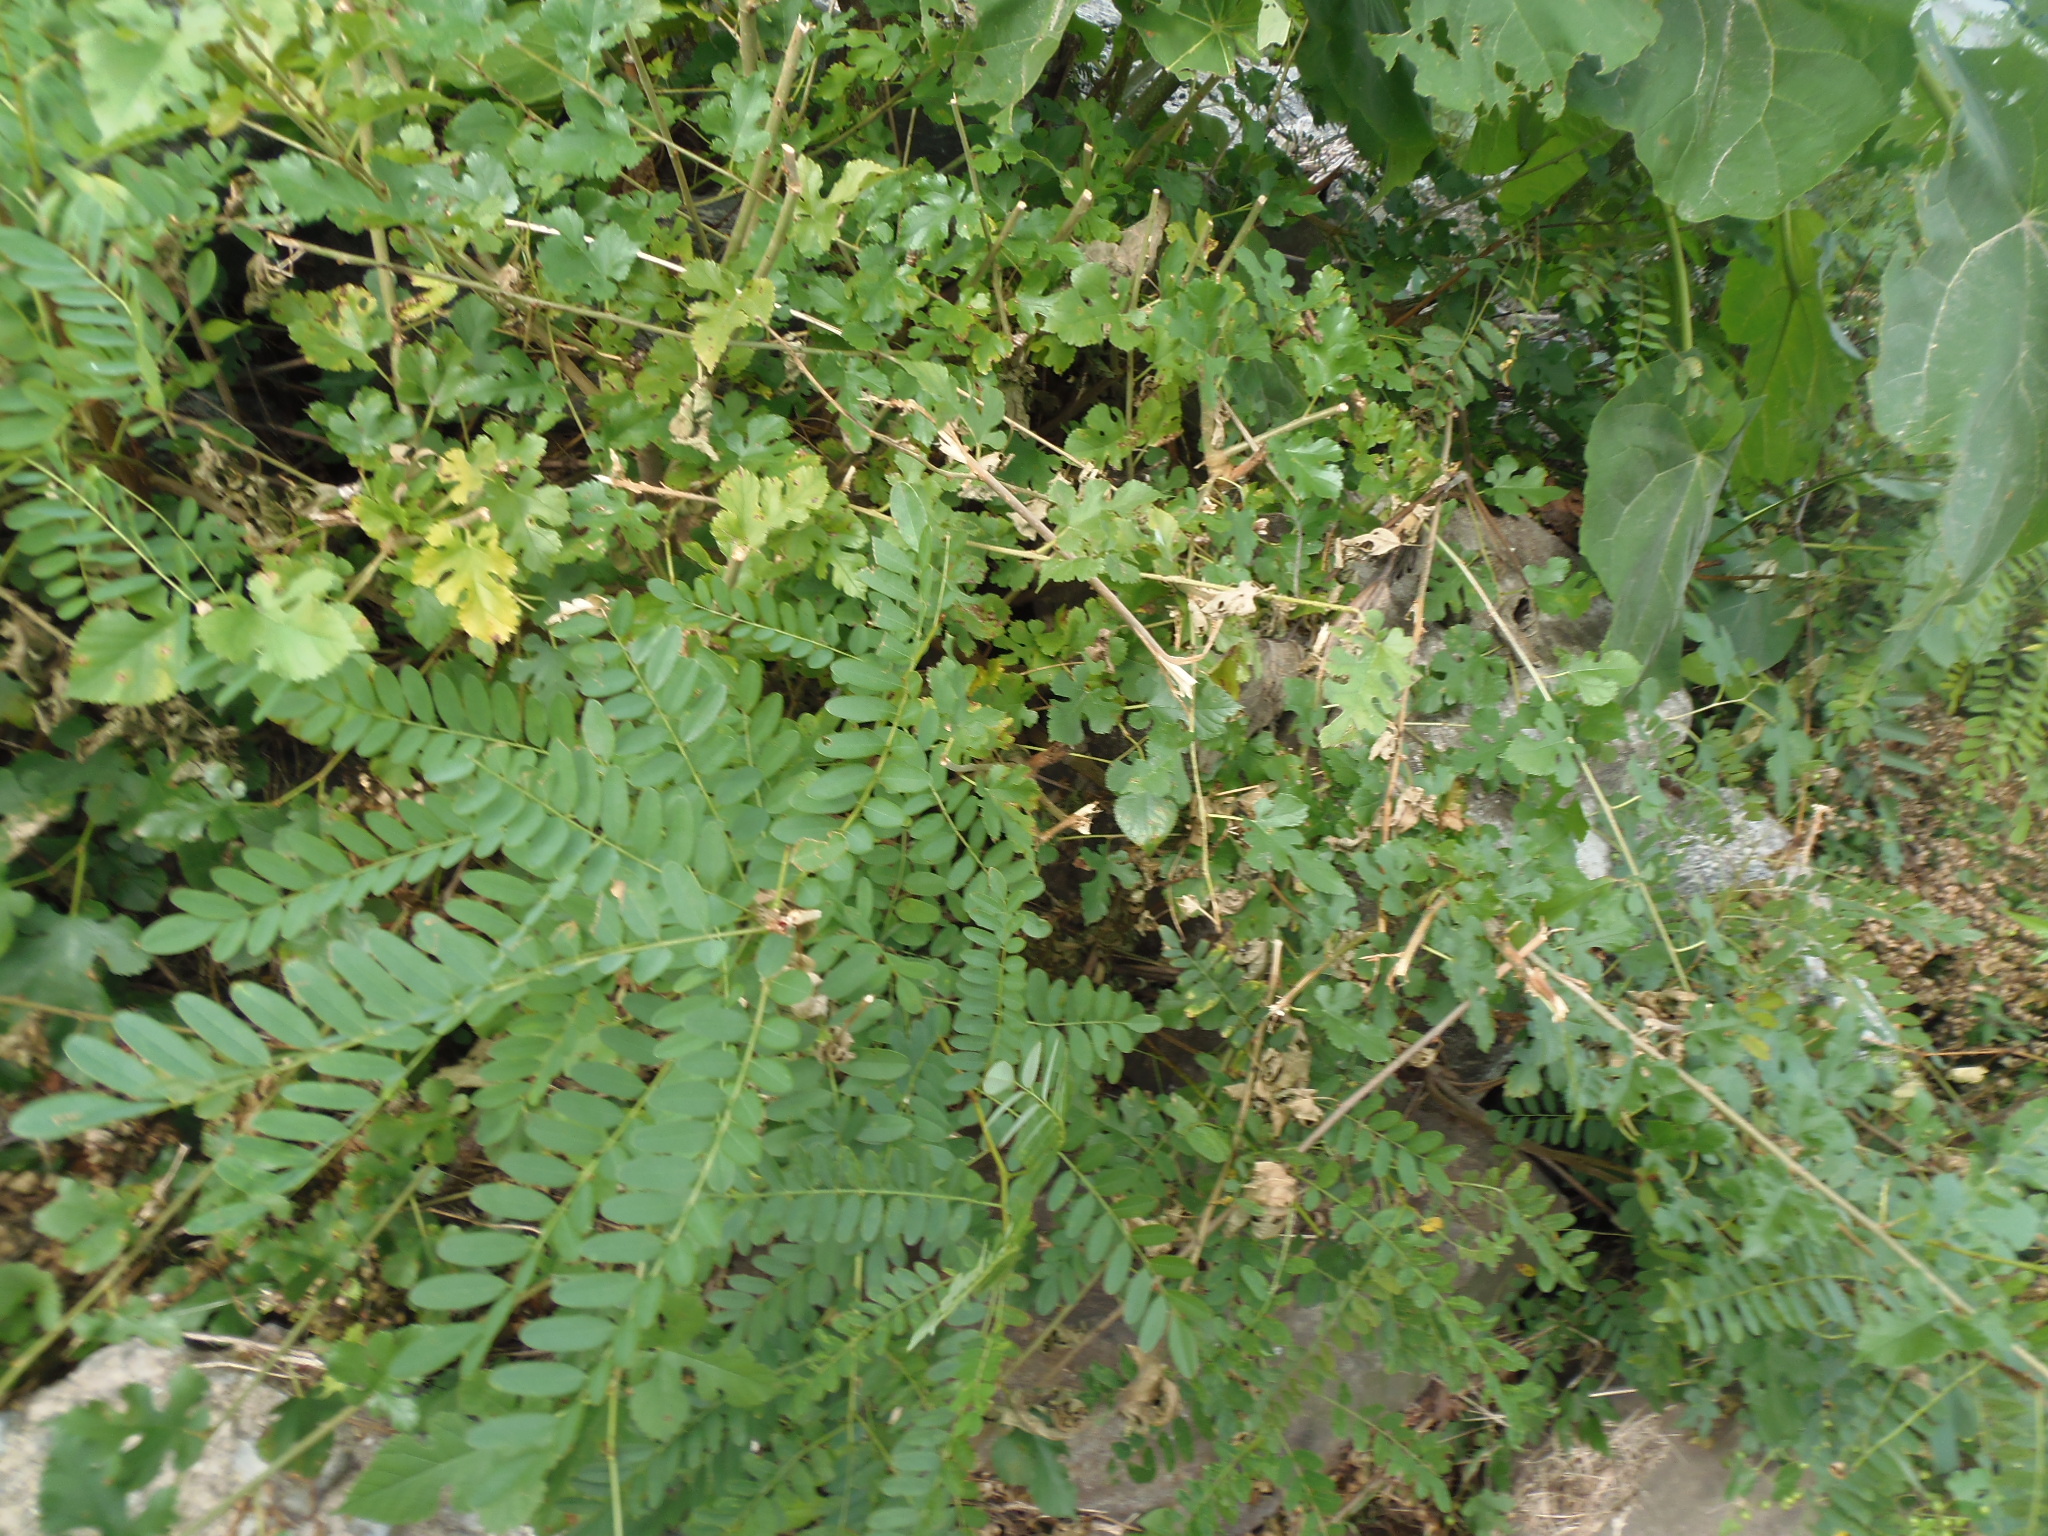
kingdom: Plantae
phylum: Tracheophyta
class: Magnoliopsida
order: Fabales
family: Fabaceae
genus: Amorpha
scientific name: Amorpha fruticosa
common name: False indigo
